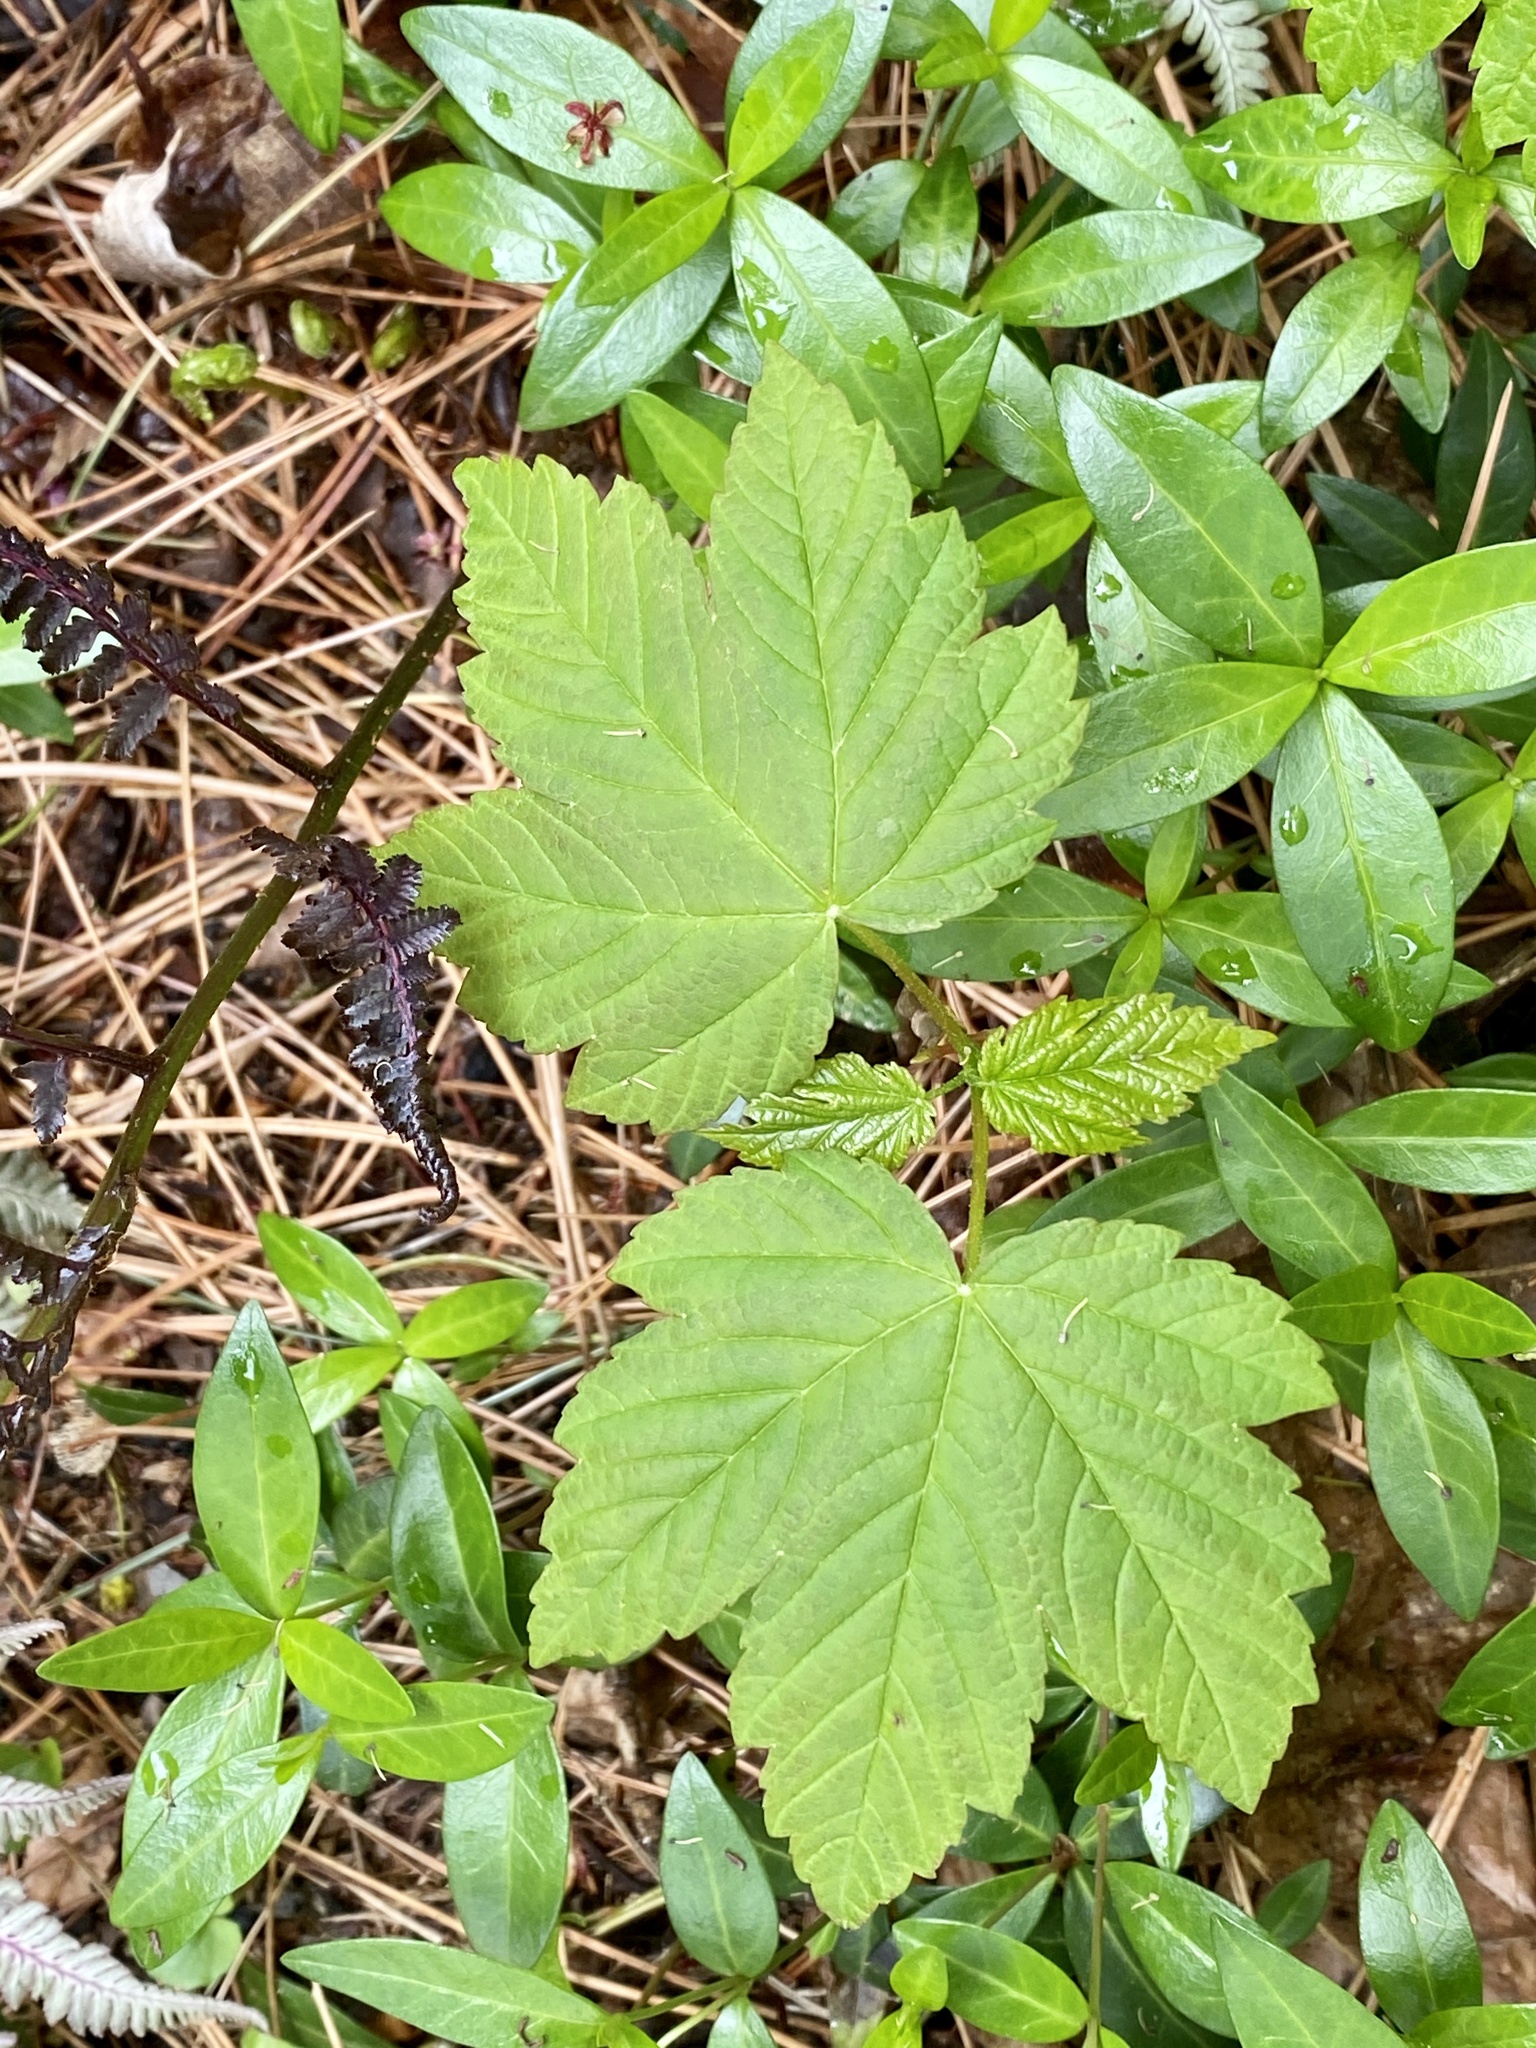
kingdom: Plantae
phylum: Tracheophyta
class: Magnoliopsida
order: Sapindales
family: Sapindaceae
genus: Acer
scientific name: Acer pseudoplatanus
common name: Sycamore
